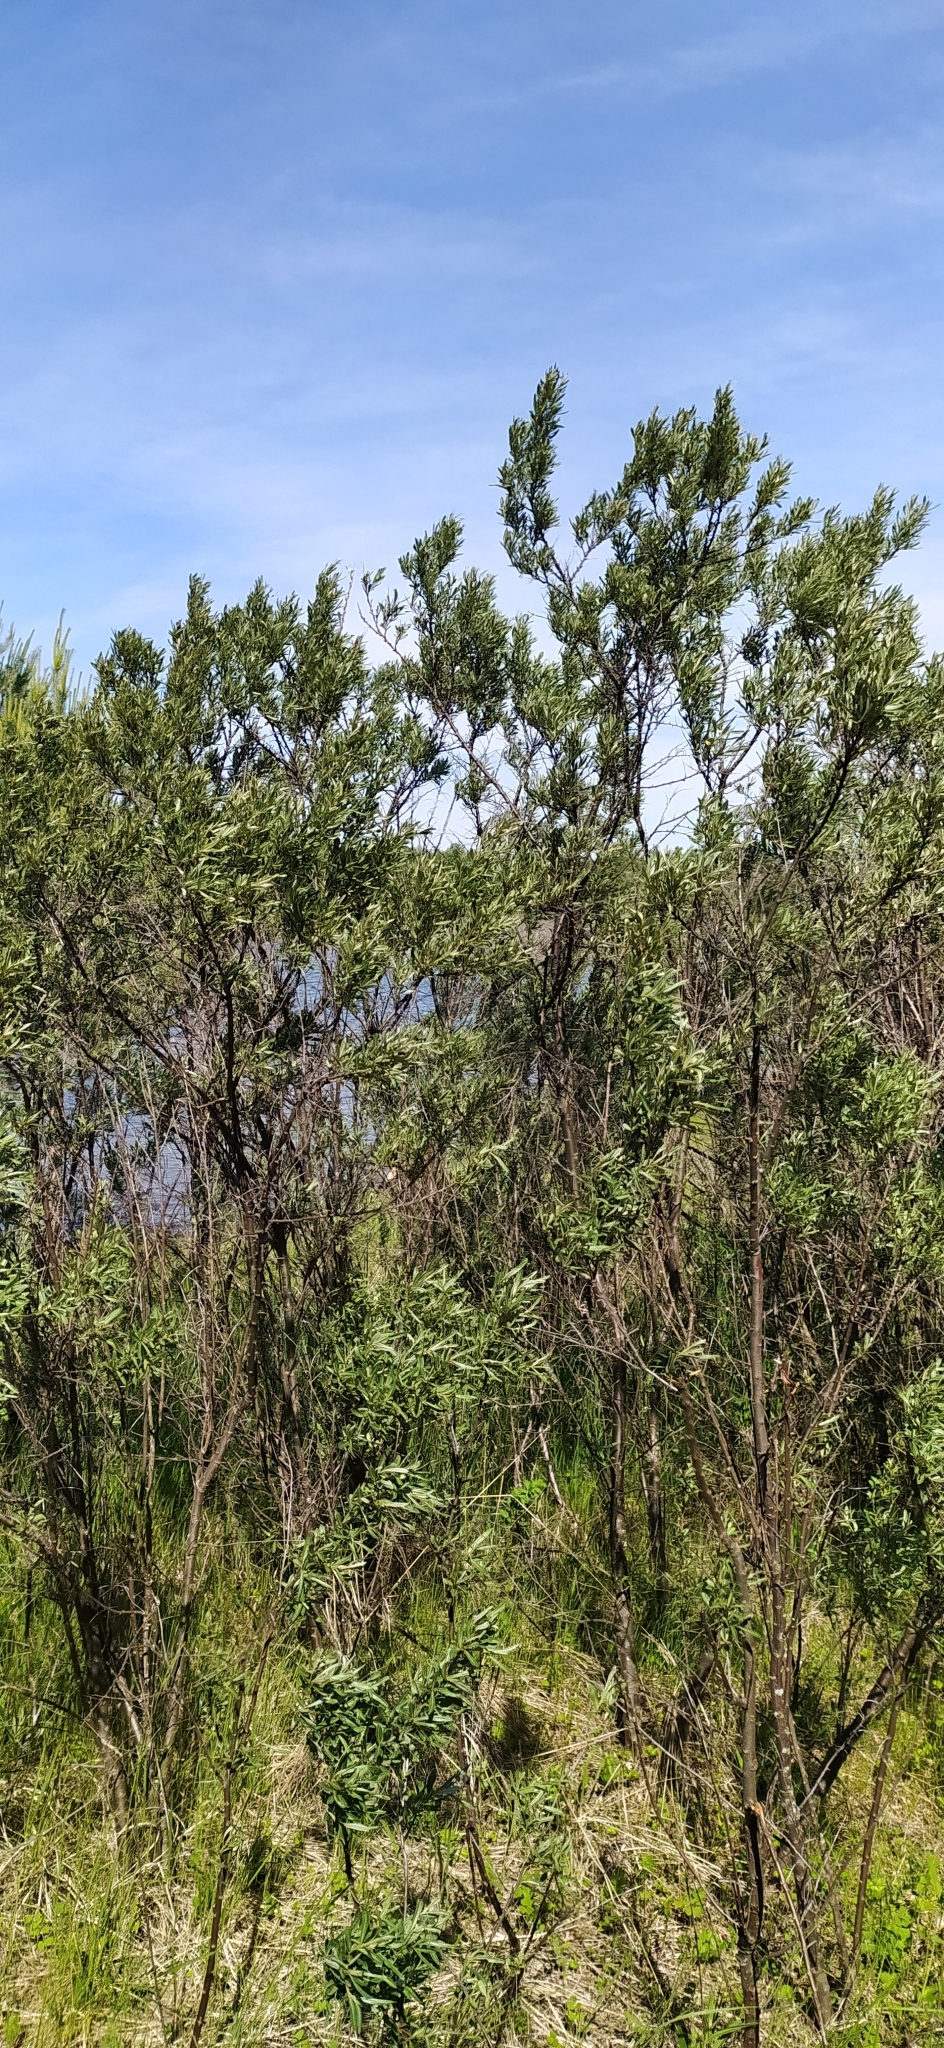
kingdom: Plantae
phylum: Tracheophyta
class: Magnoliopsida
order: Rosales
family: Elaeagnaceae
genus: Hippophae
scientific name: Hippophae rhamnoides
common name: Sea-buckthorn
